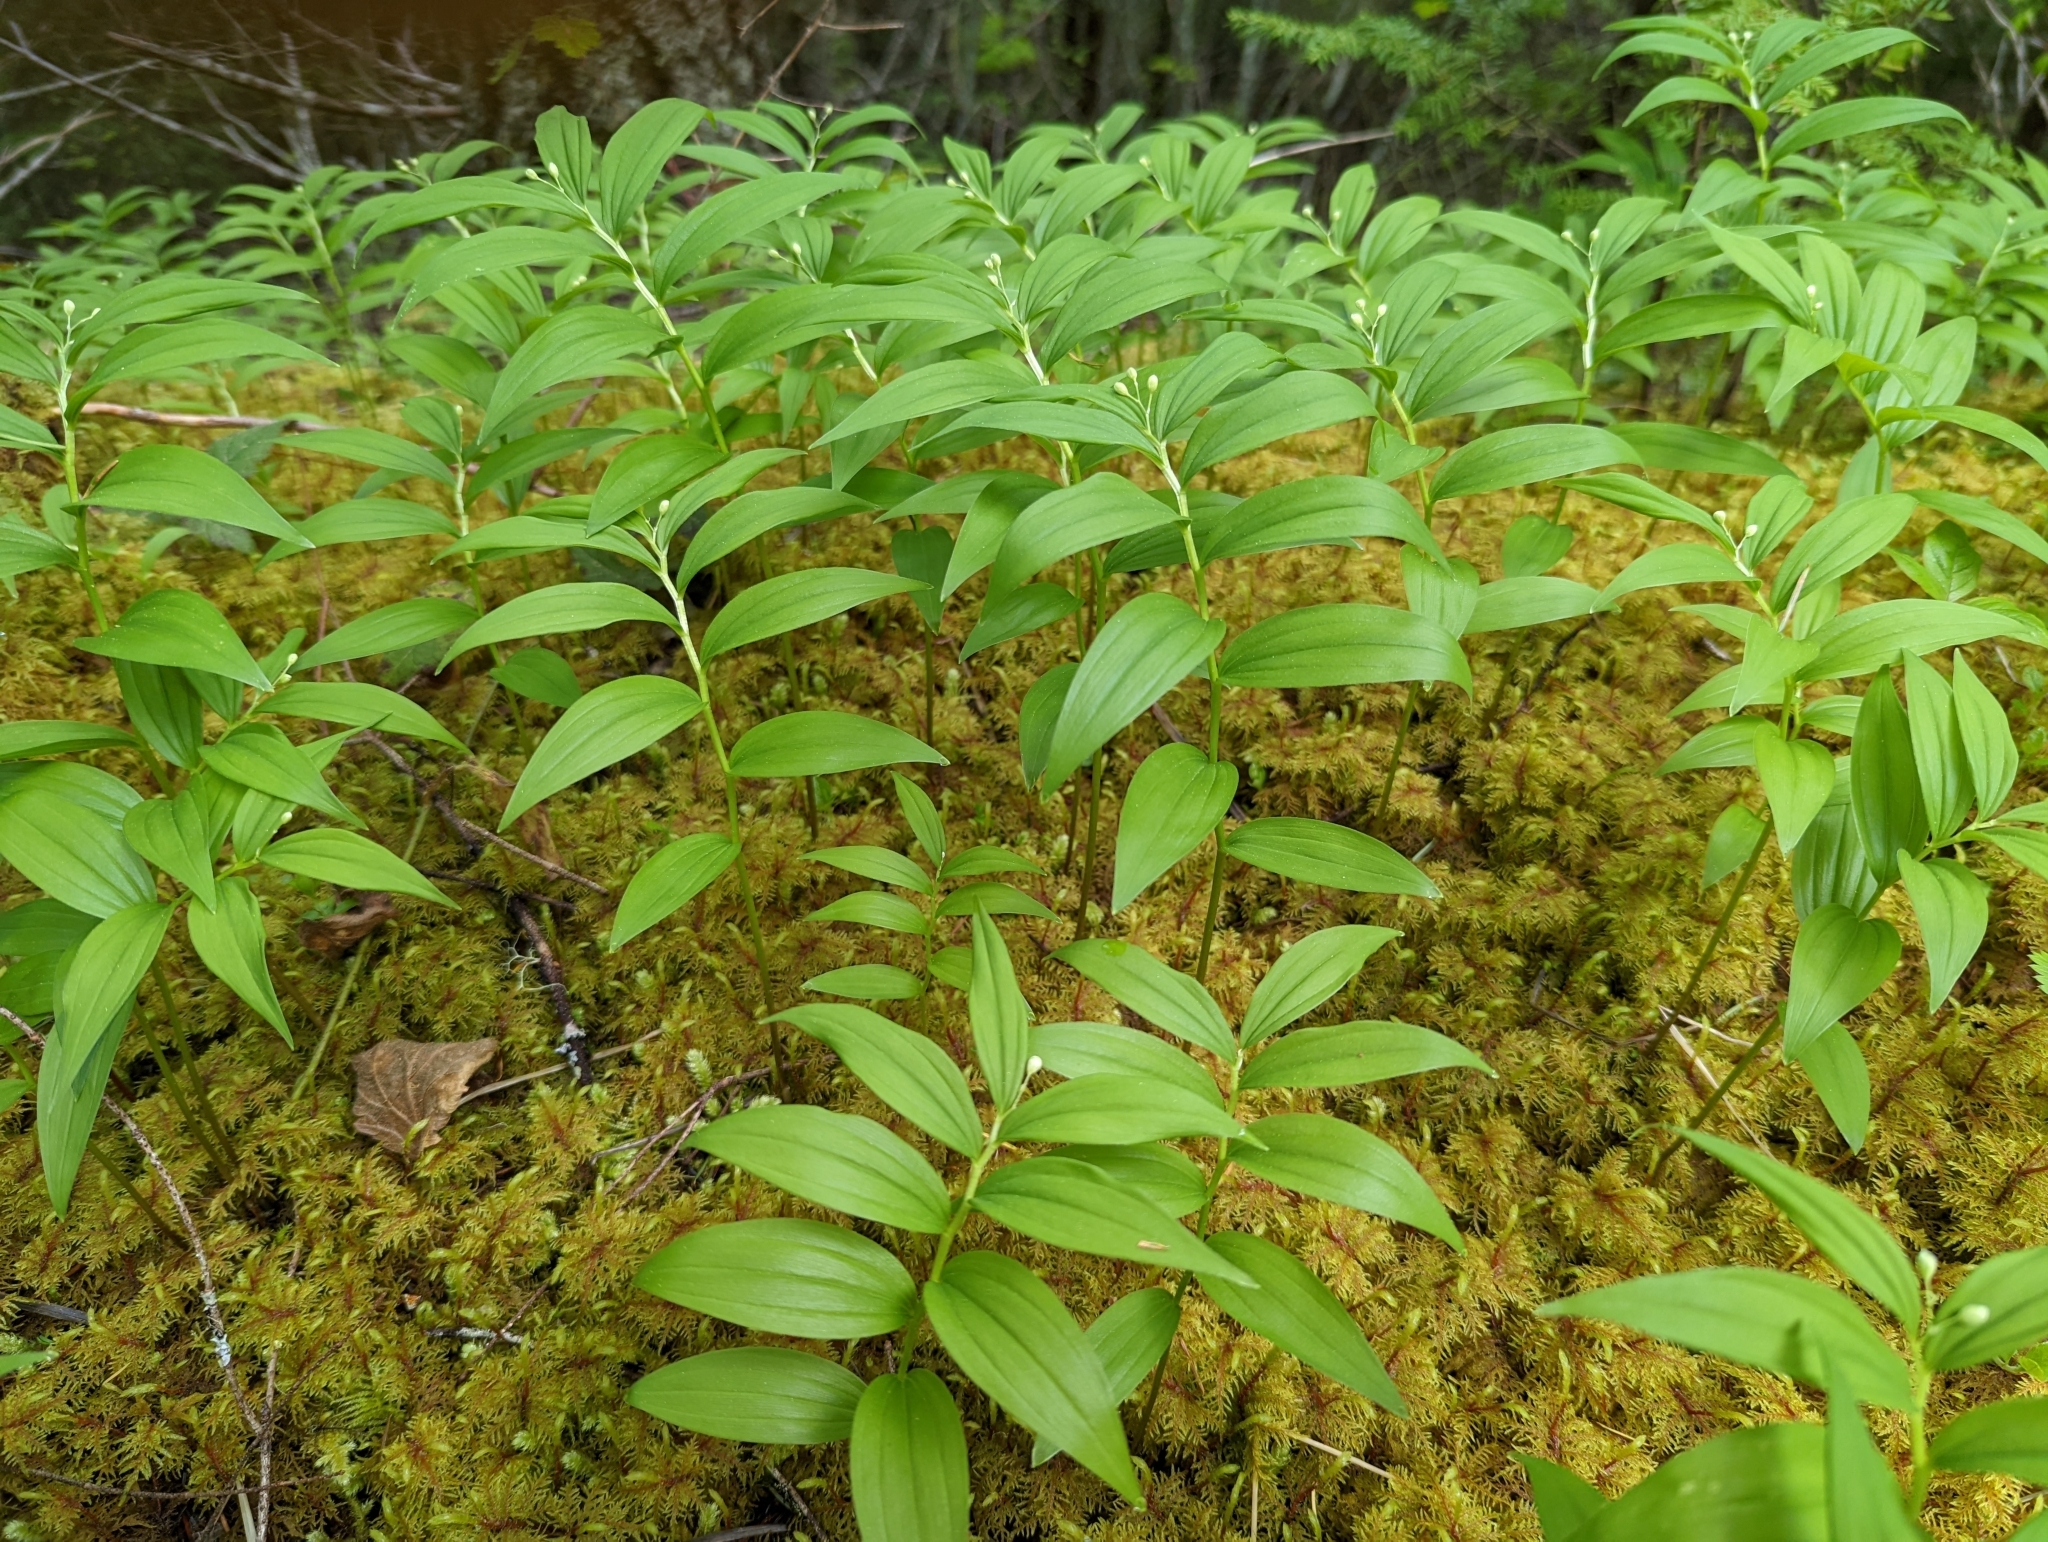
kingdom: Plantae
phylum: Tracheophyta
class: Liliopsida
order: Asparagales
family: Asparagaceae
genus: Maianthemum
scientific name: Maianthemum stellatum
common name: Little false solomon's seal
